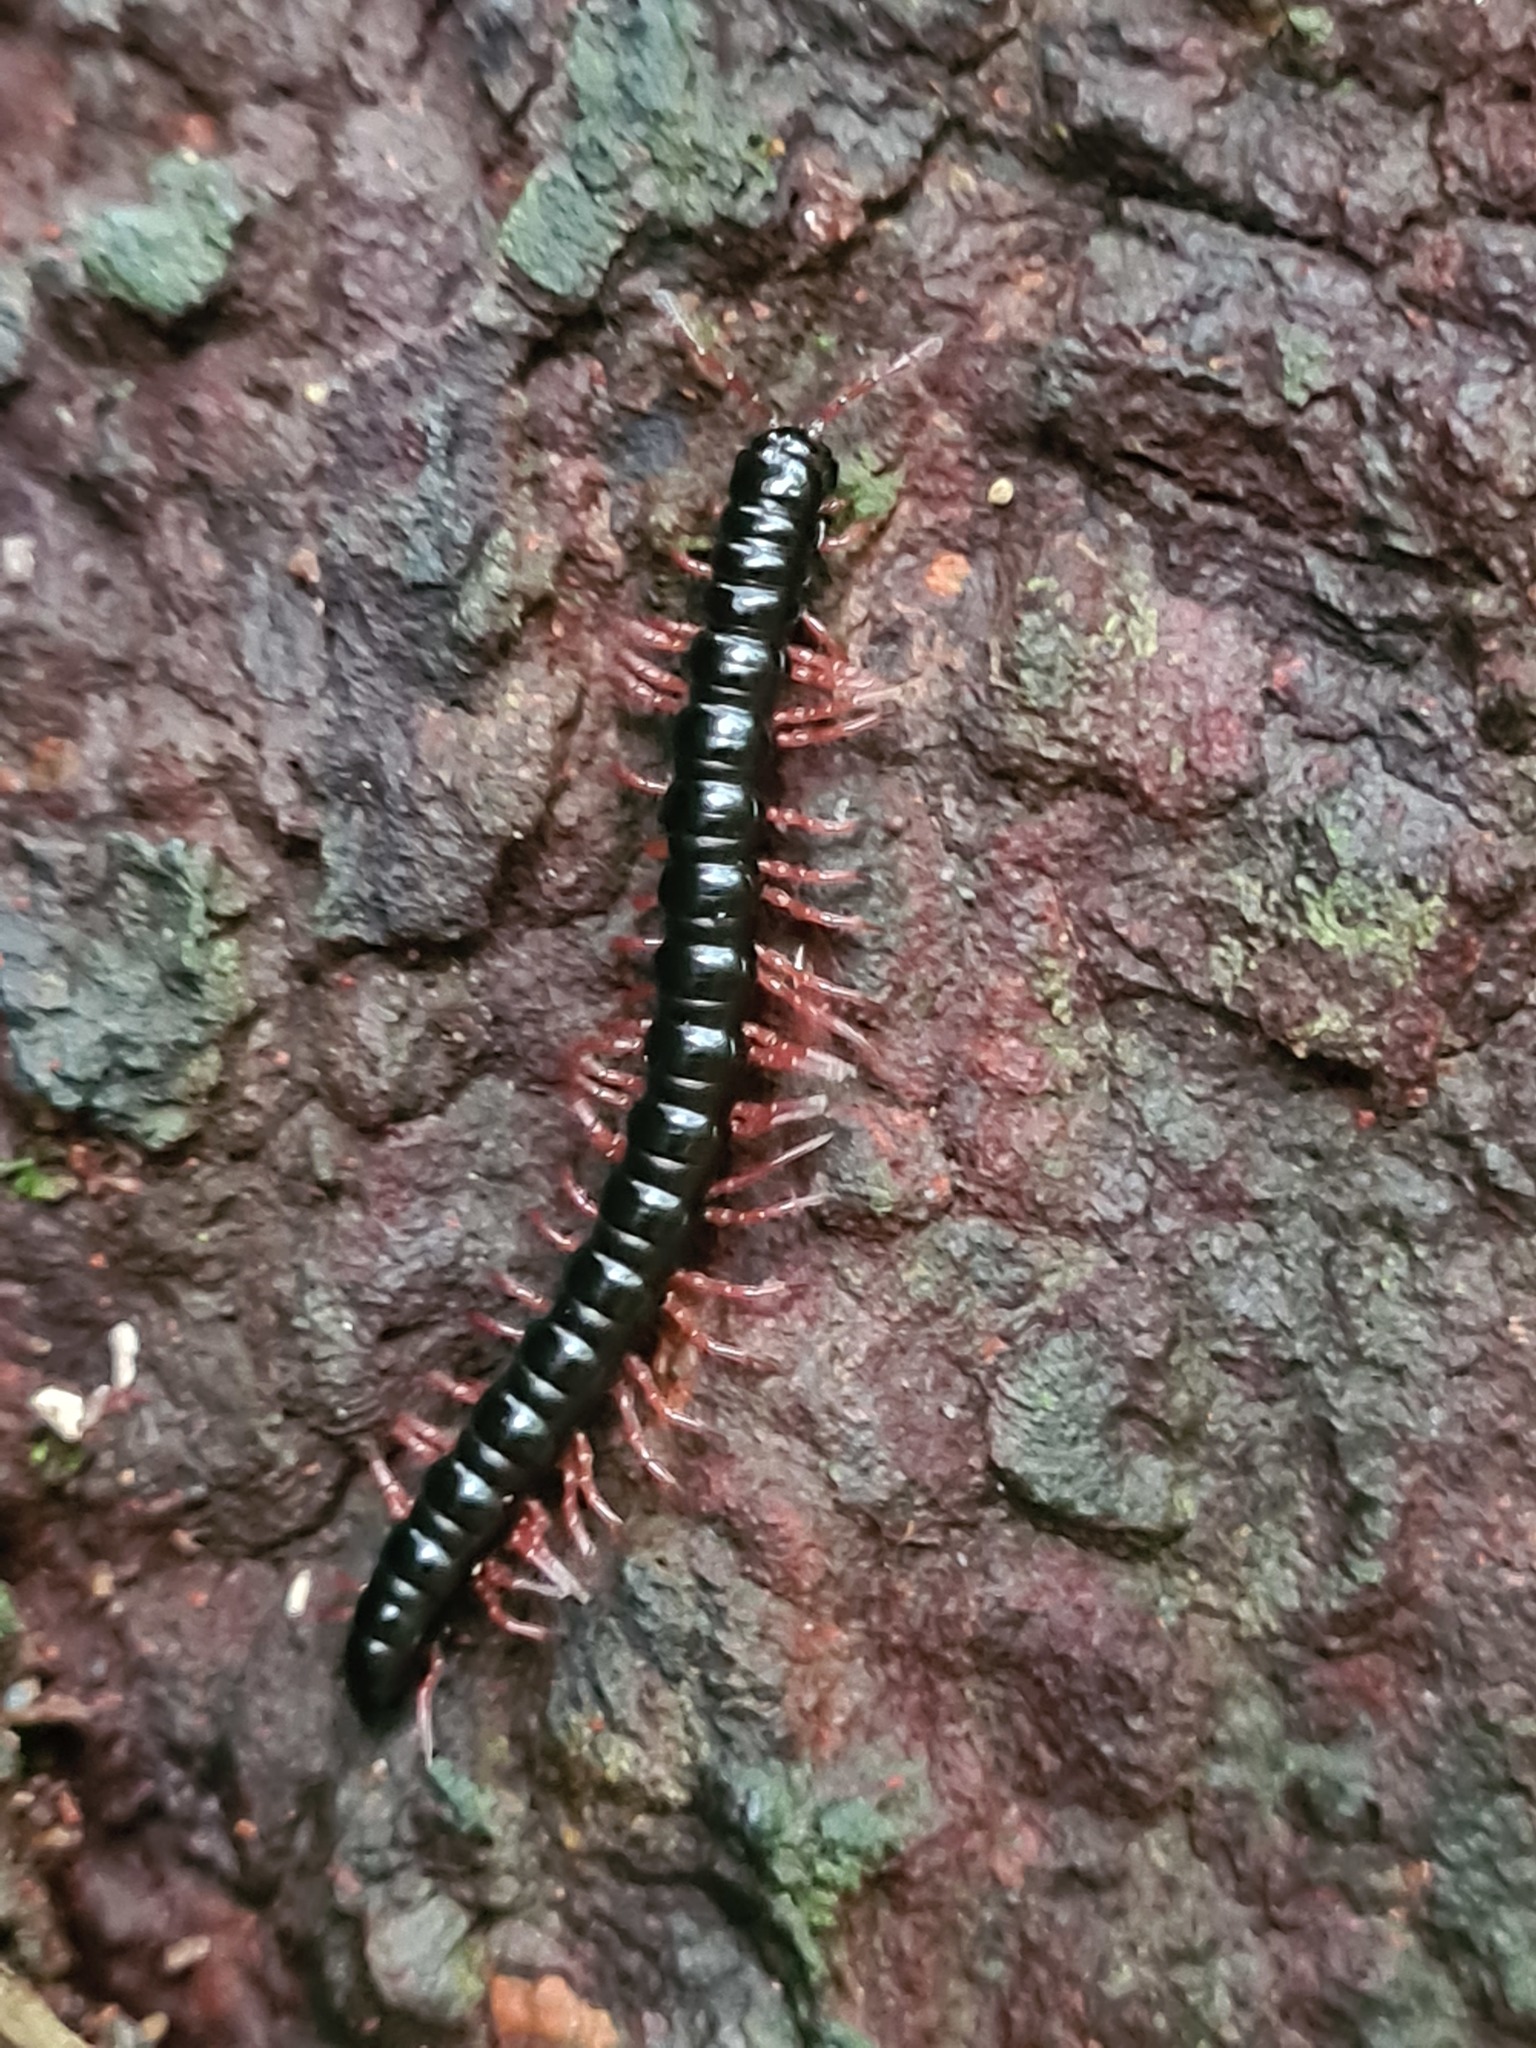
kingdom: Animalia
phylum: Arthropoda
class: Diplopoda
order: Polydesmida
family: Paradoxosomatidae
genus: Heterocladosoma
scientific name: Heterocladosoma
